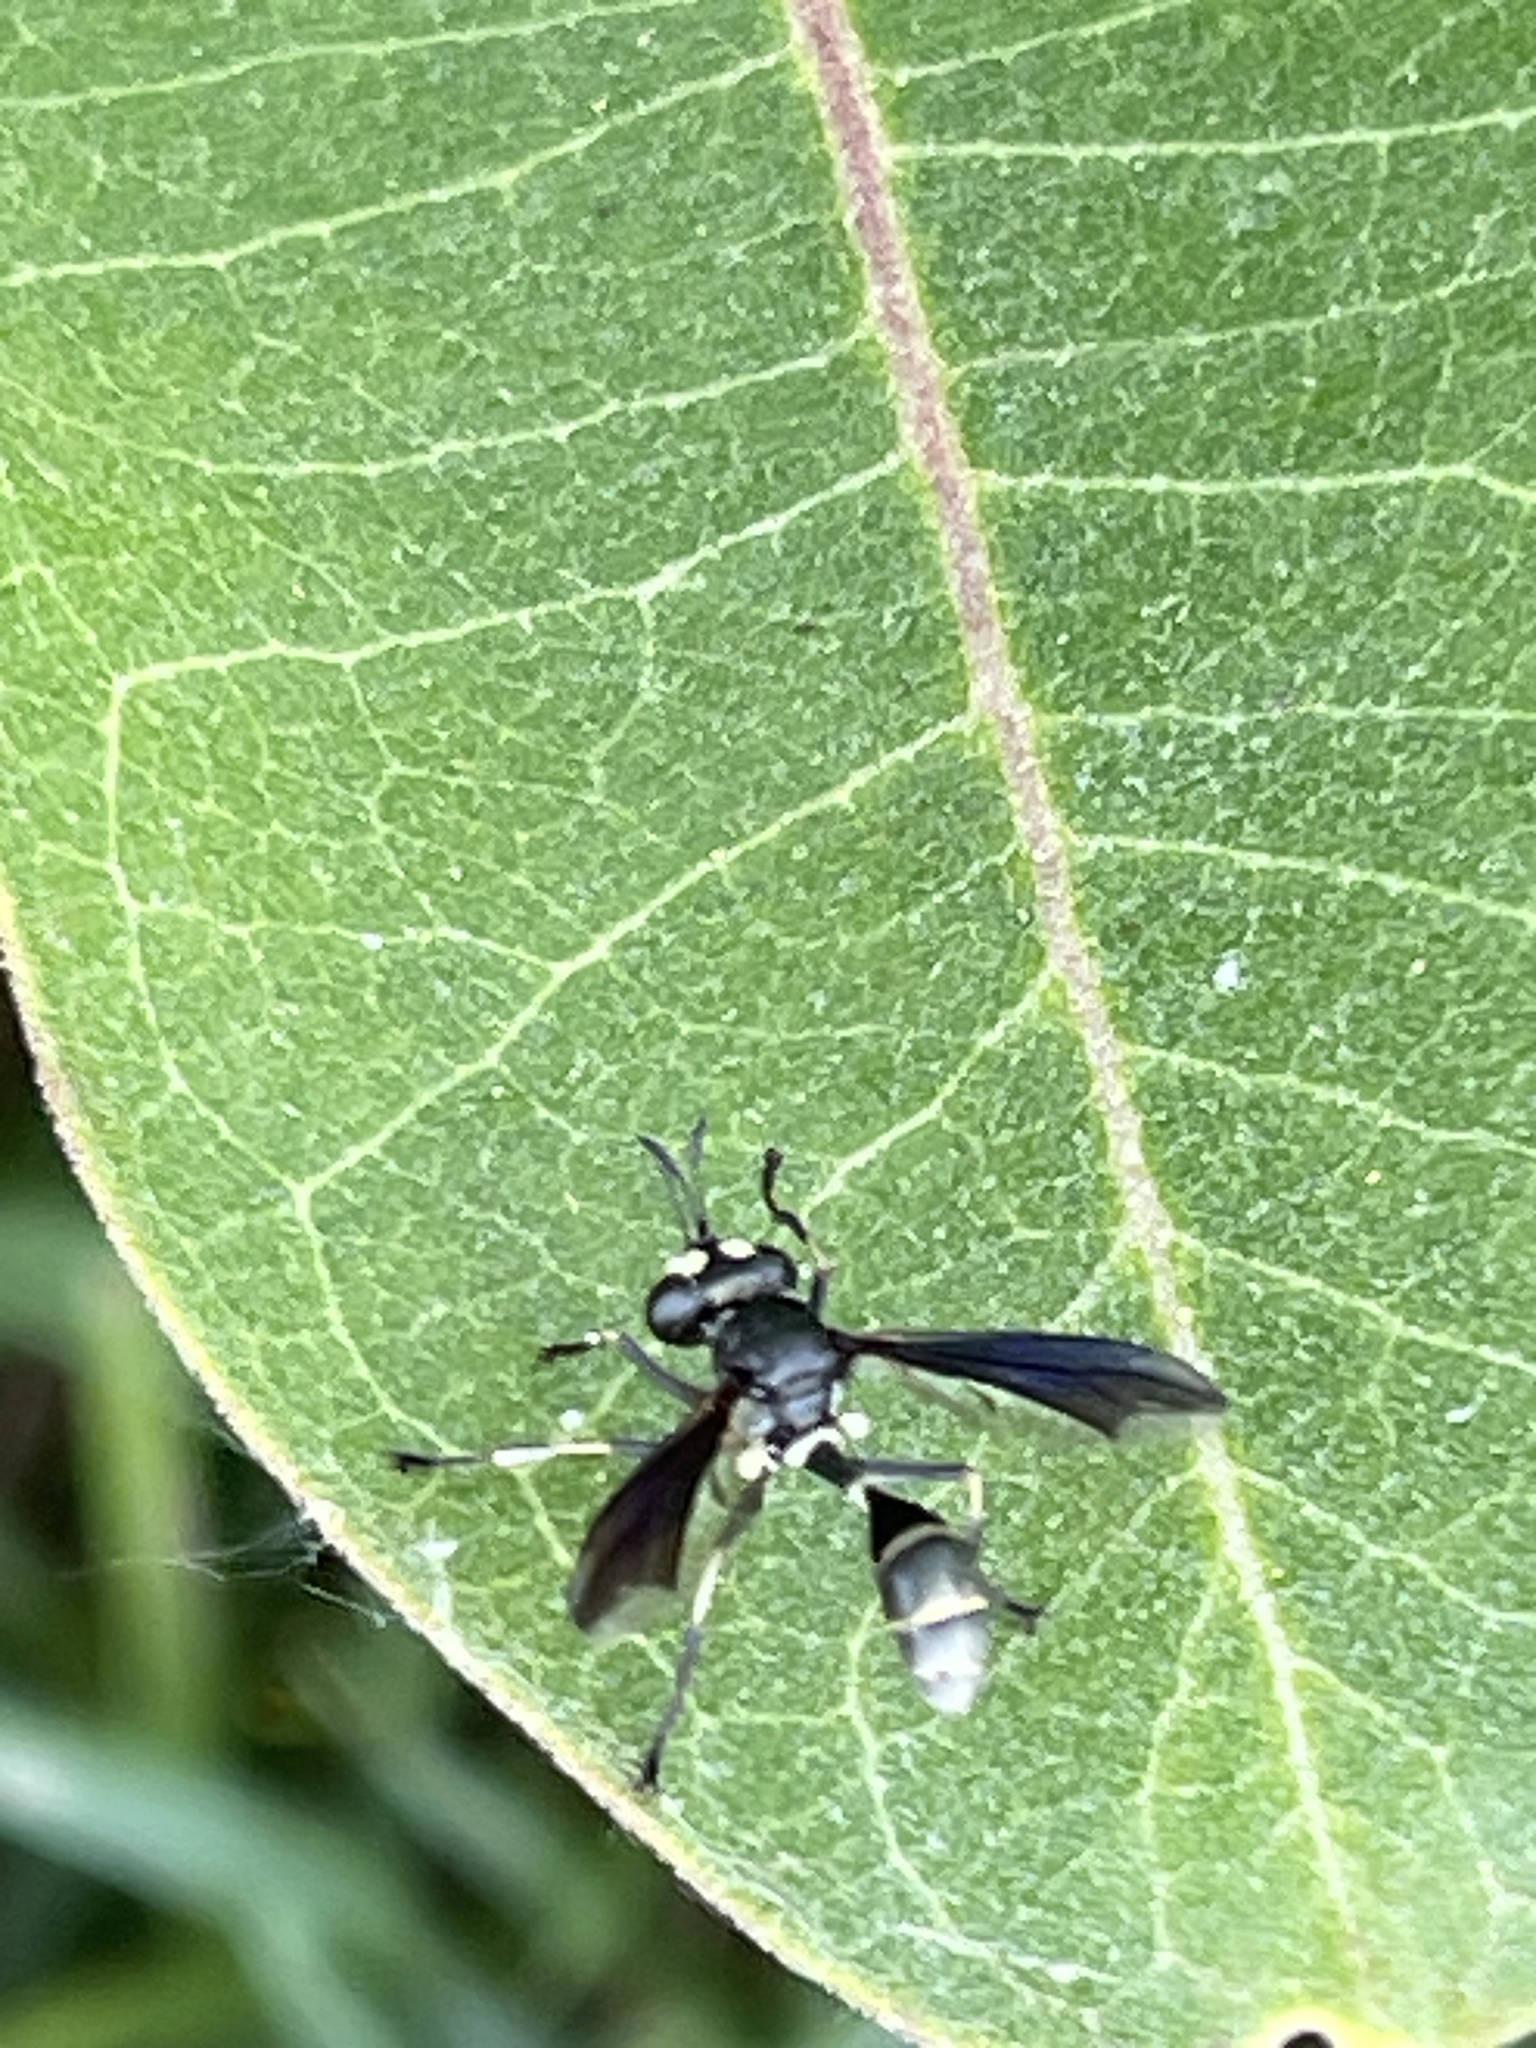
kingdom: Animalia
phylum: Arthropoda
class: Insecta
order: Diptera
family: Conopidae
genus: Physocephala
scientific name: Physocephala tibialis
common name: Common eastern physocephala
